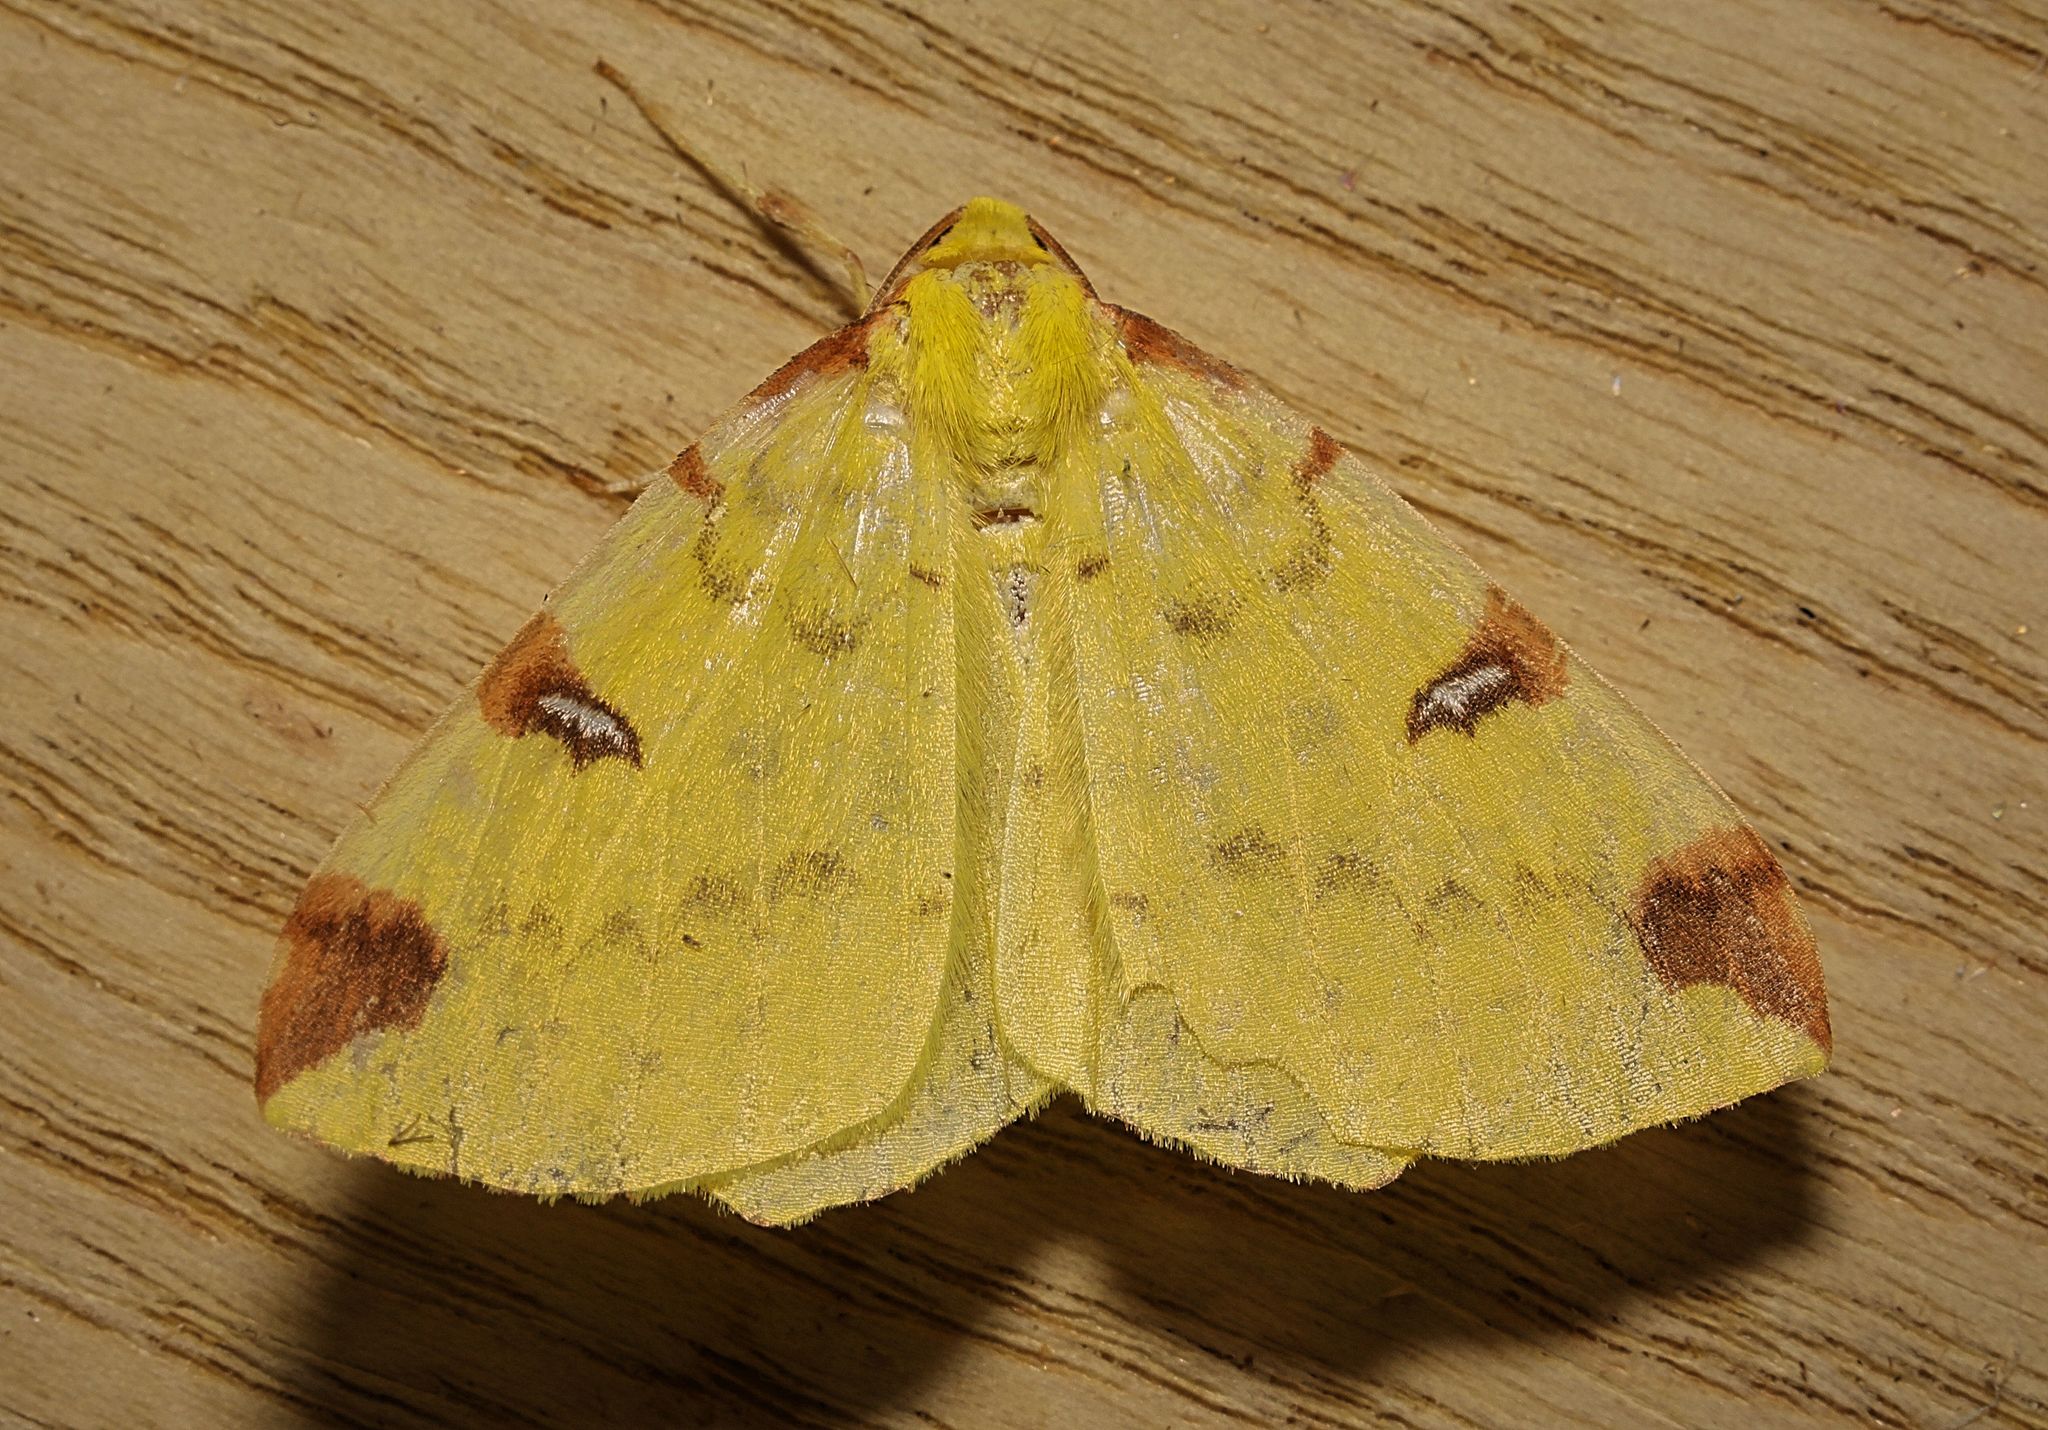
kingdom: Animalia
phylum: Arthropoda
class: Insecta
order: Lepidoptera
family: Geometridae
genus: Opisthograptis
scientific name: Opisthograptis luteolata
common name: Brimstone moth
